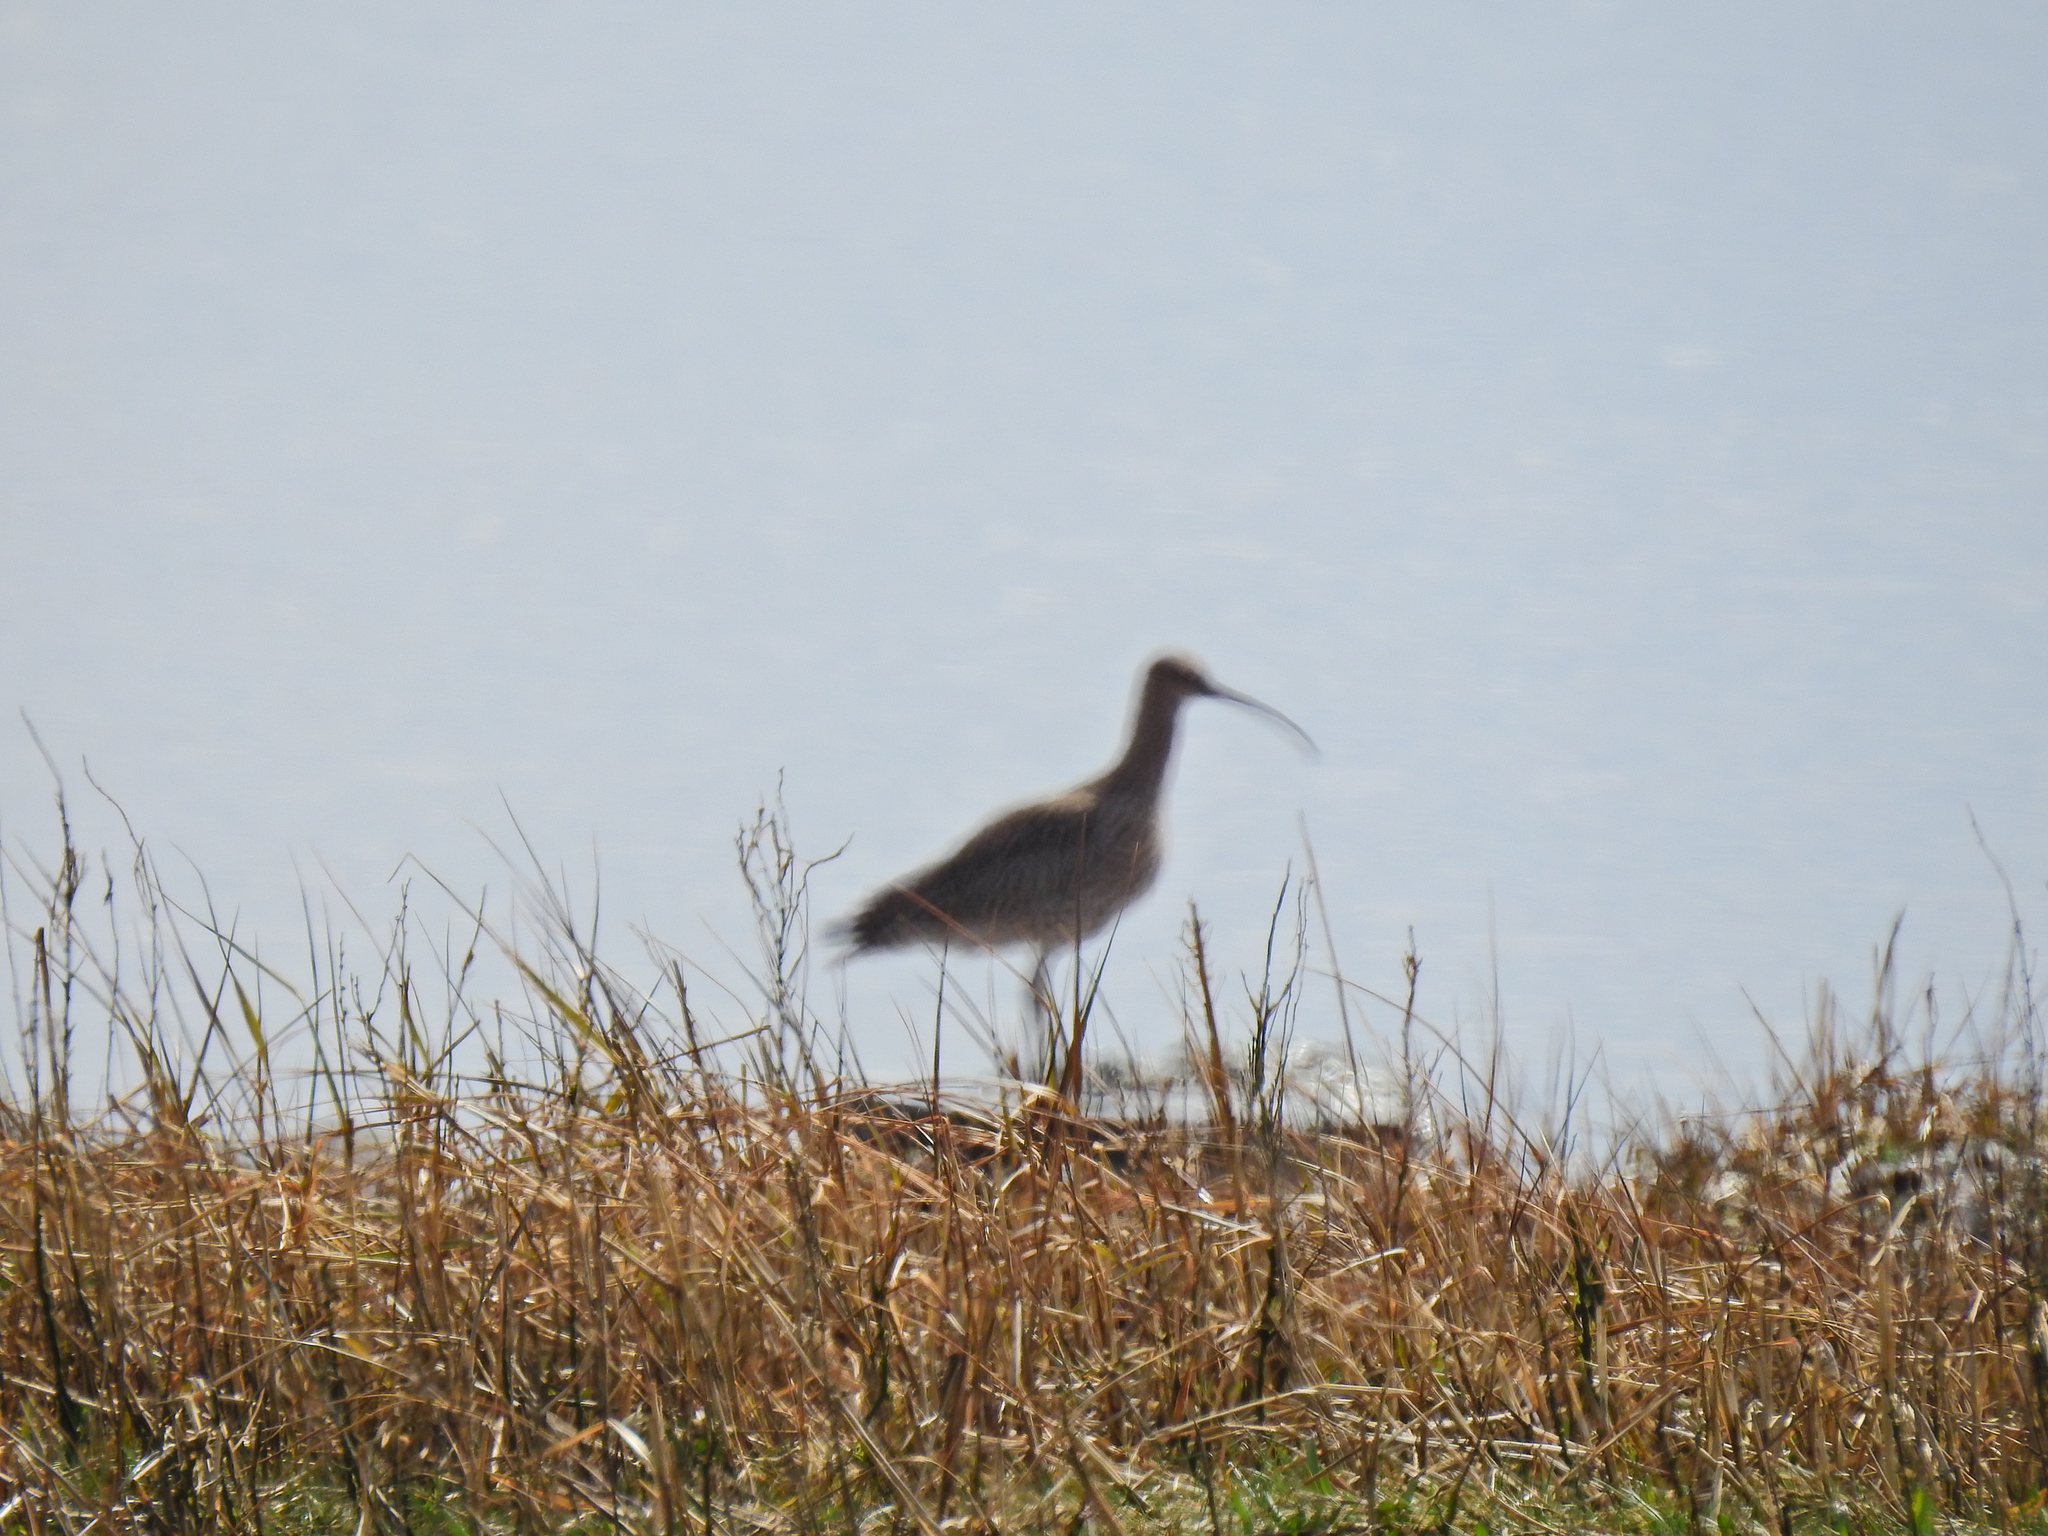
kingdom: Animalia
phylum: Chordata
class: Aves
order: Charadriiformes
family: Scolopacidae
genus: Numenius
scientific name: Numenius arquata
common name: Eurasian curlew
